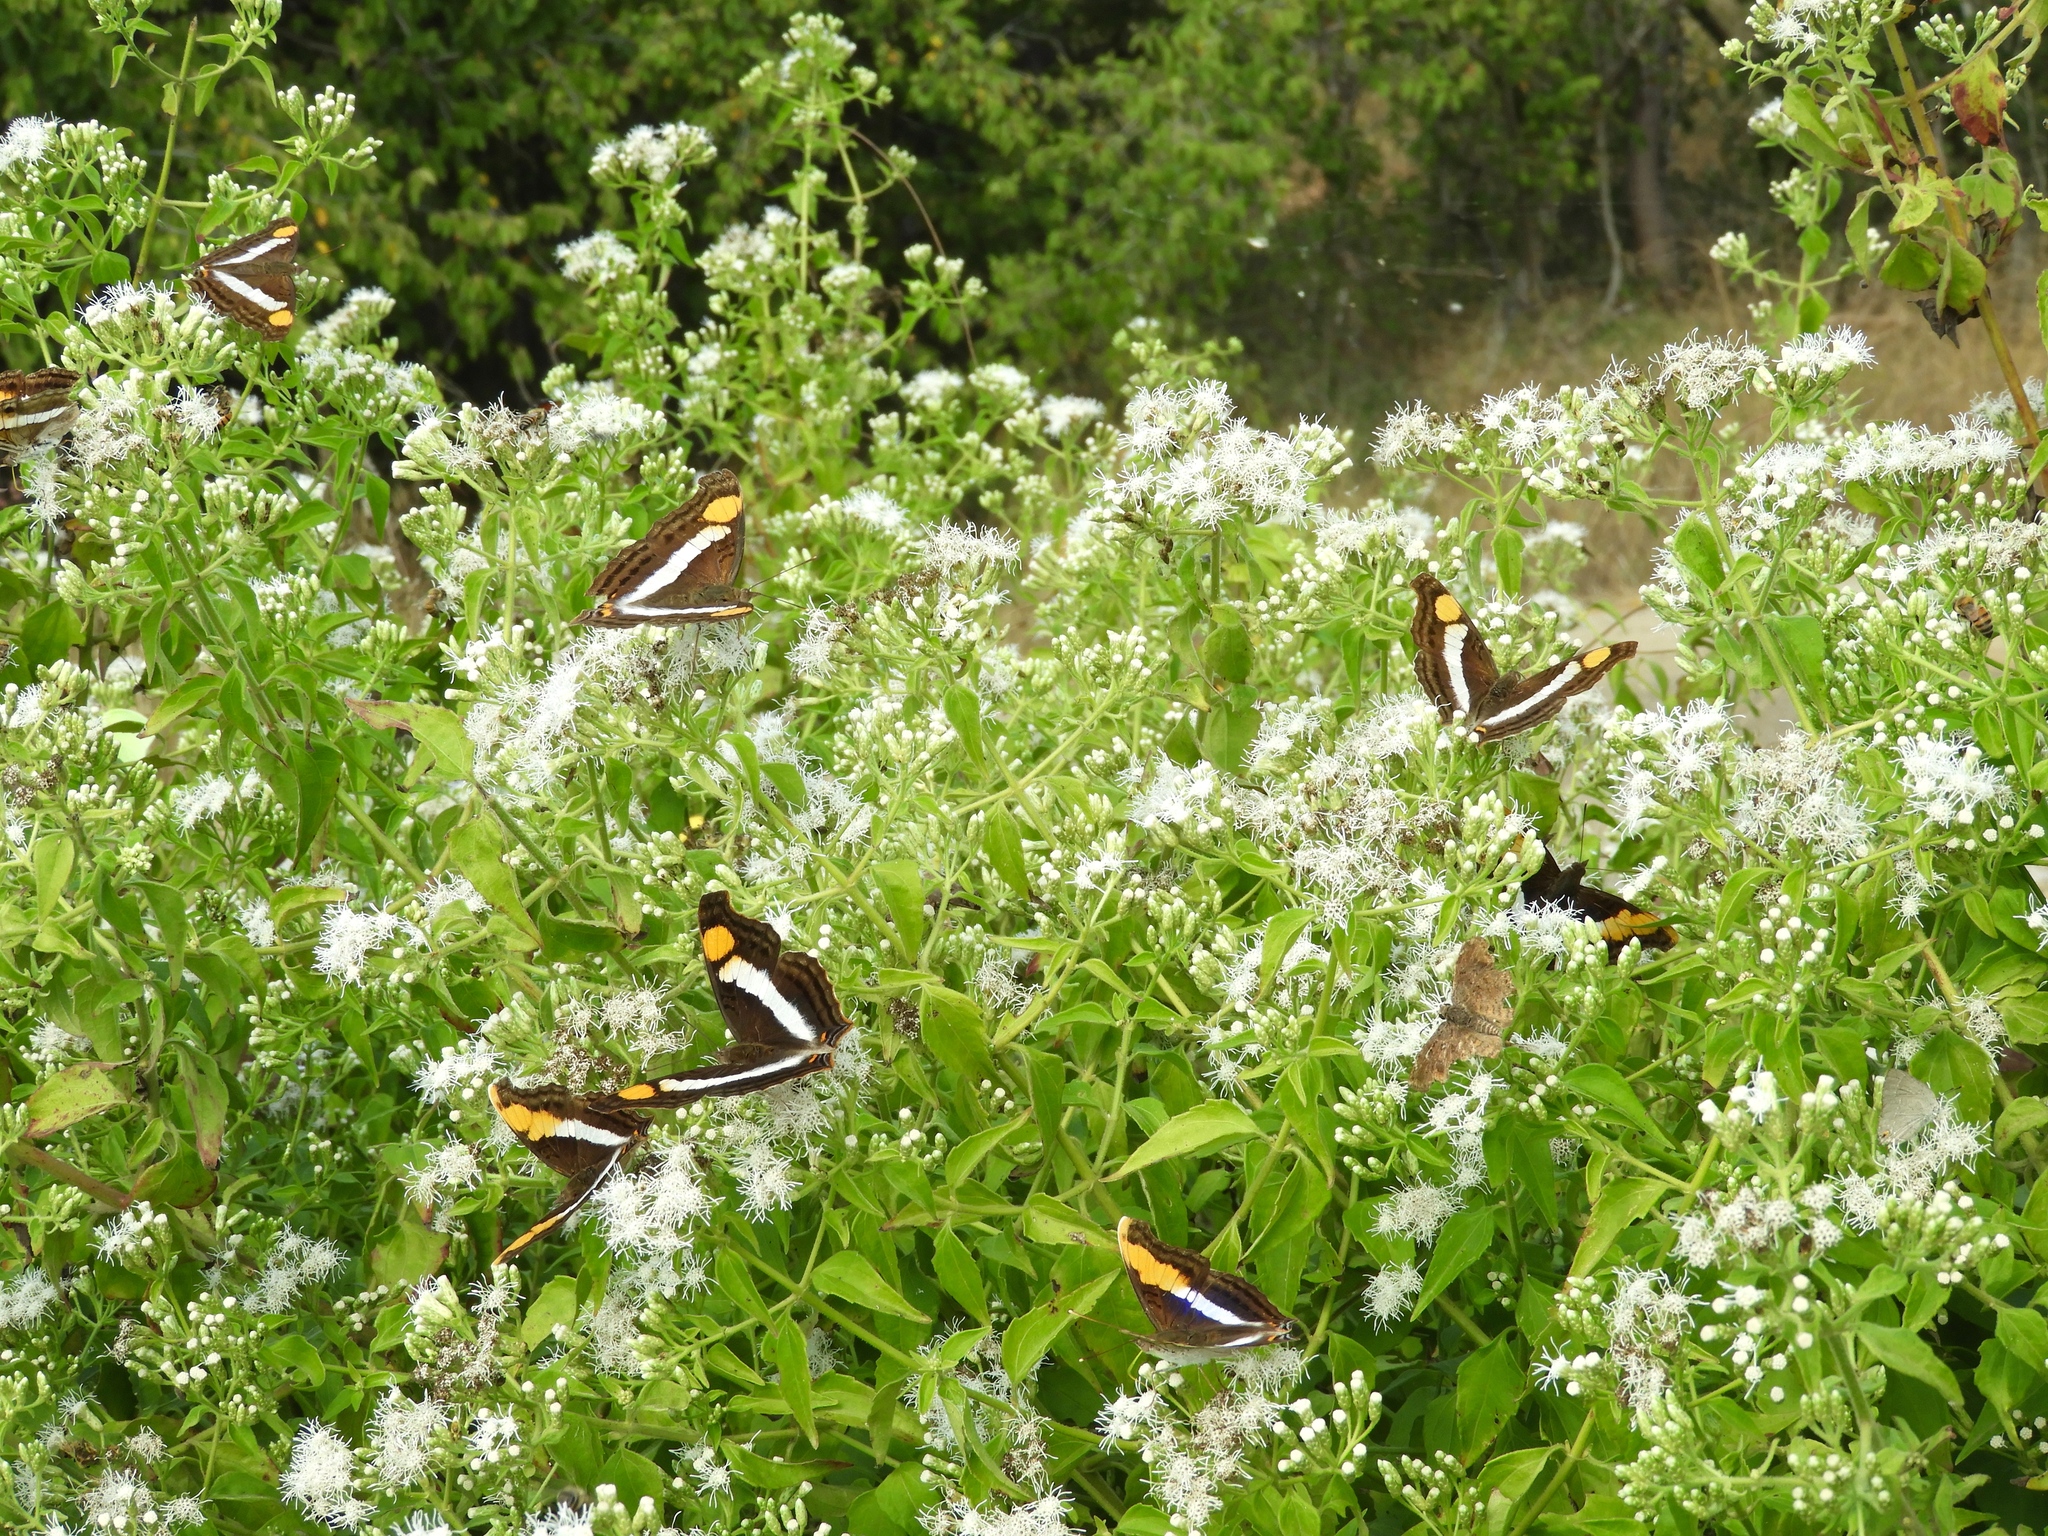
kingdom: Animalia
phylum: Arthropoda
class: Insecta
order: Lepidoptera
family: Nymphalidae
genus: Doxocopa
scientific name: Doxocopa laure
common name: Silver emperor
